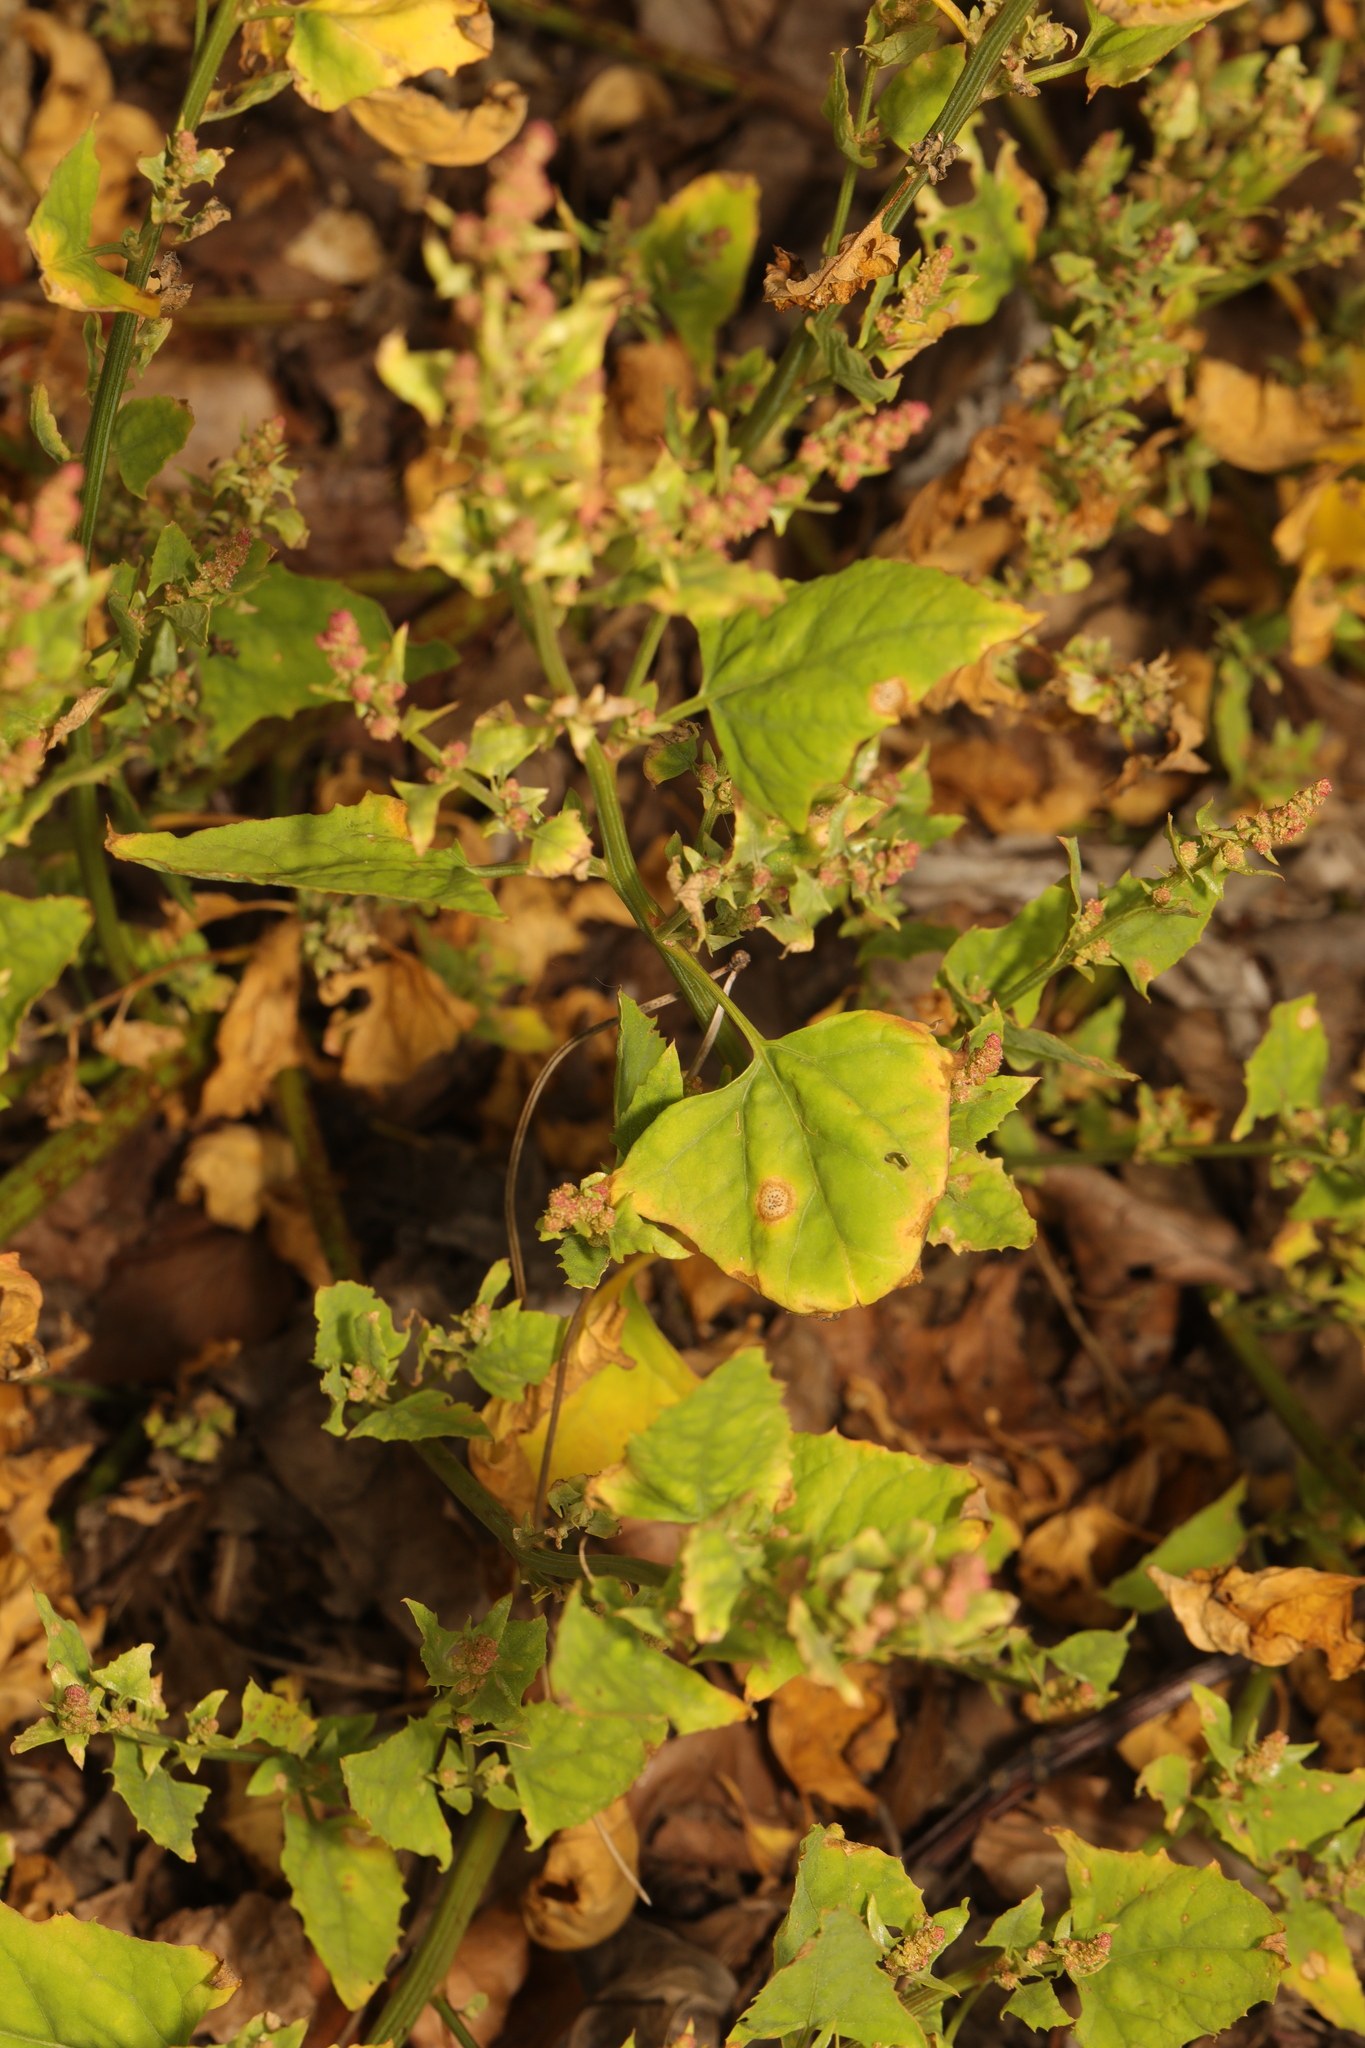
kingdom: Plantae
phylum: Tracheophyta
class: Magnoliopsida
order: Caryophyllales
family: Amaranthaceae
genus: Atriplex
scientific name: Atriplex prostrata
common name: Spear-leaved orache
